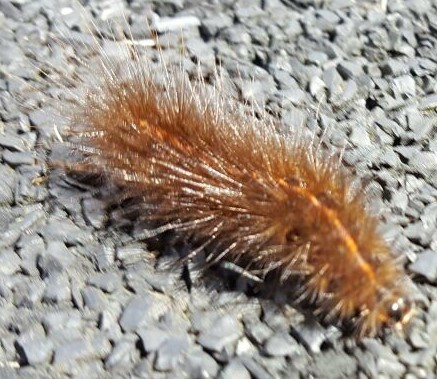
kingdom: Animalia
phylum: Arthropoda
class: Insecta
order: Lepidoptera
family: Erebidae
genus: Phragmatobia
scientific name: Phragmatobia fuliginosa
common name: Ruby tiger
